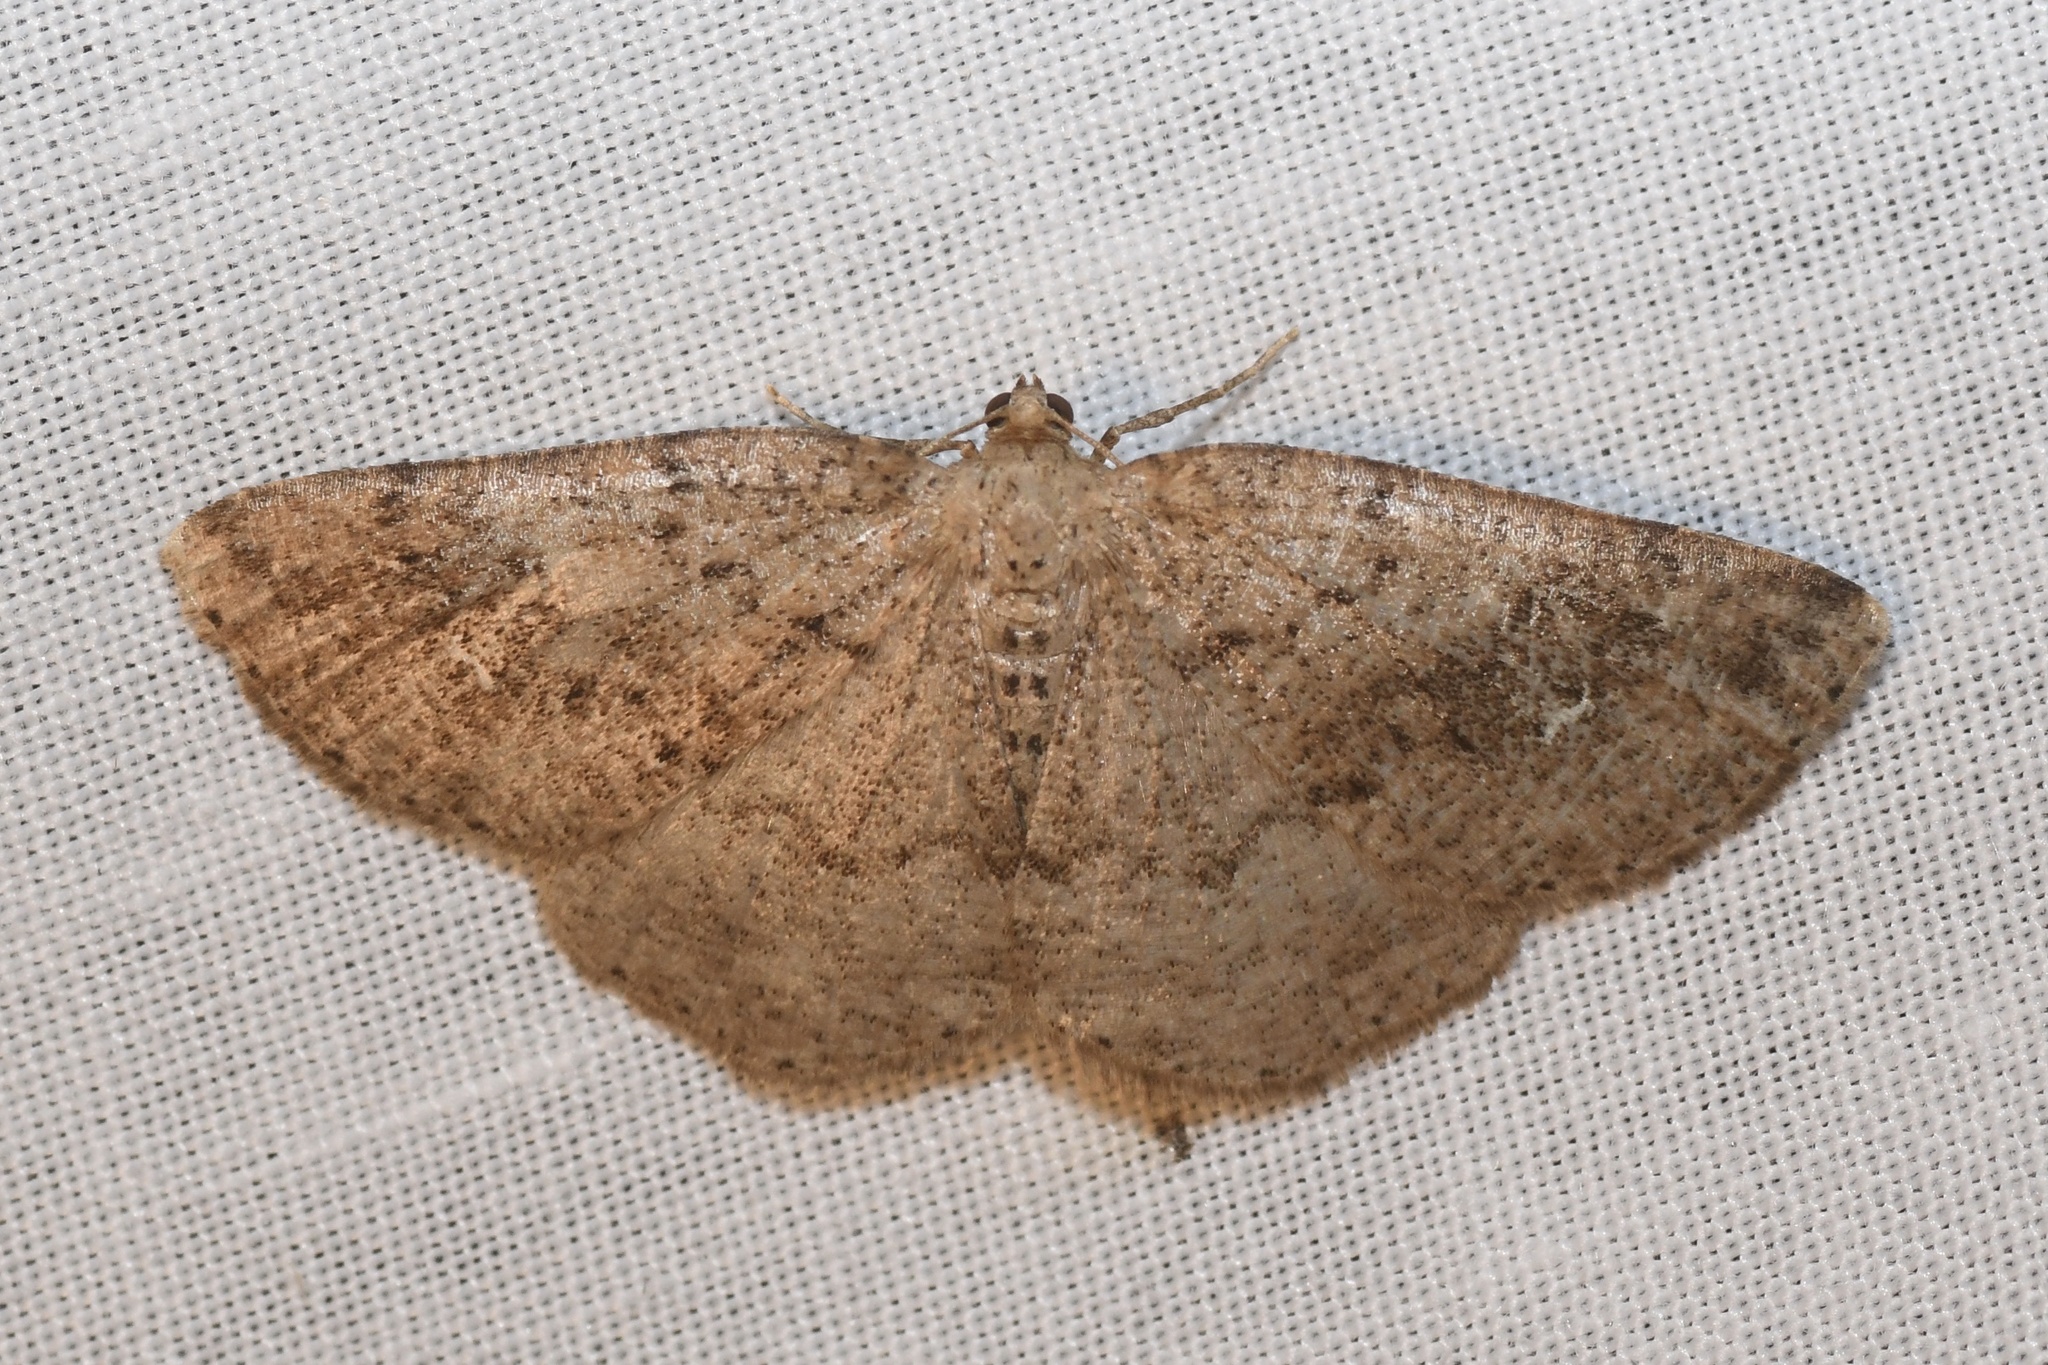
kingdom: Animalia
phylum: Arthropoda
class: Insecta
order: Lepidoptera
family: Geometridae
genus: Homochlodes
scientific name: Homochlodes fritillaria
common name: Pale homochlodes
